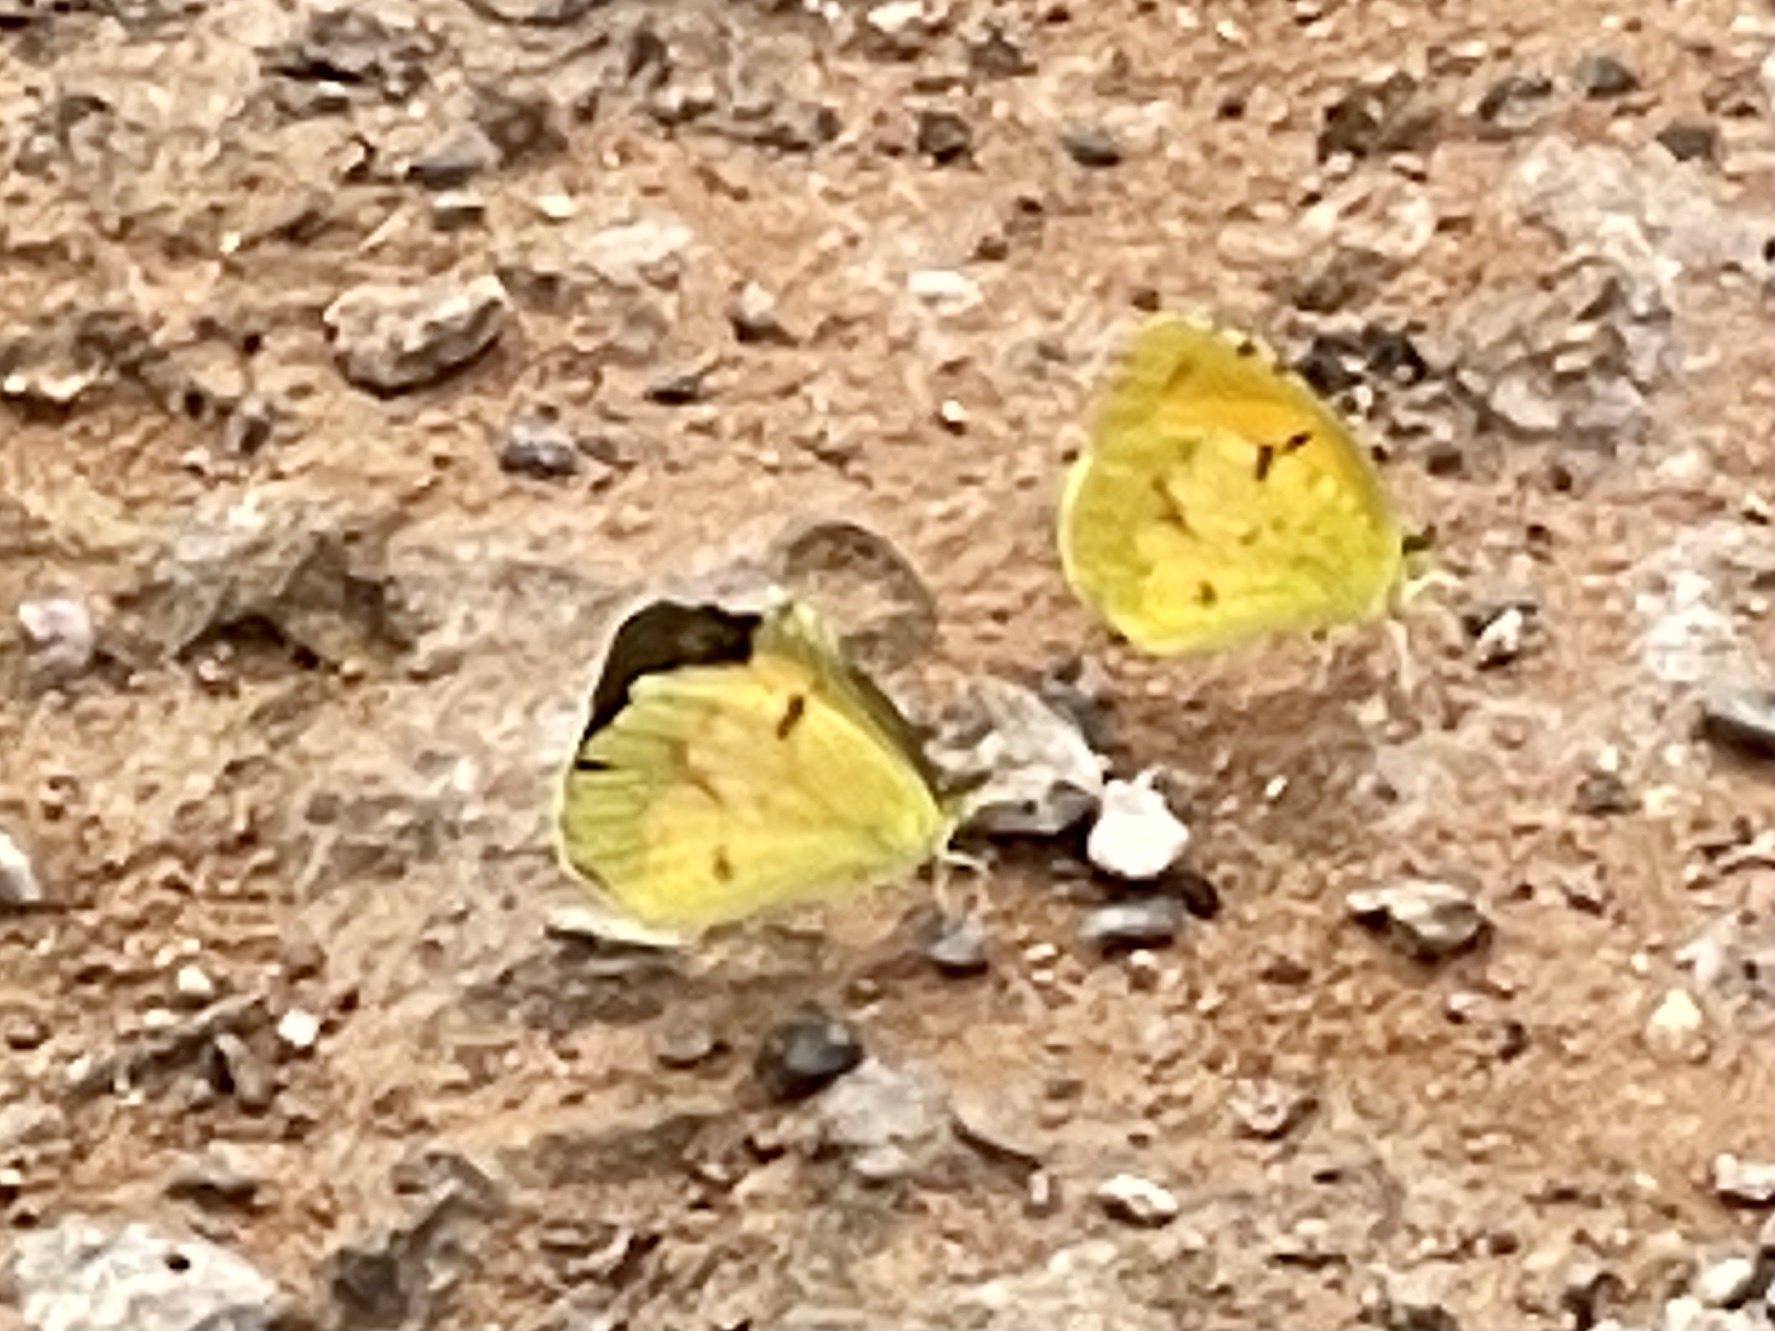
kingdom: Animalia
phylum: Arthropoda
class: Insecta
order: Lepidoptera
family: Pieridae
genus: Abaeis
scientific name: Abaeis nicippe
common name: Sleepy orange
